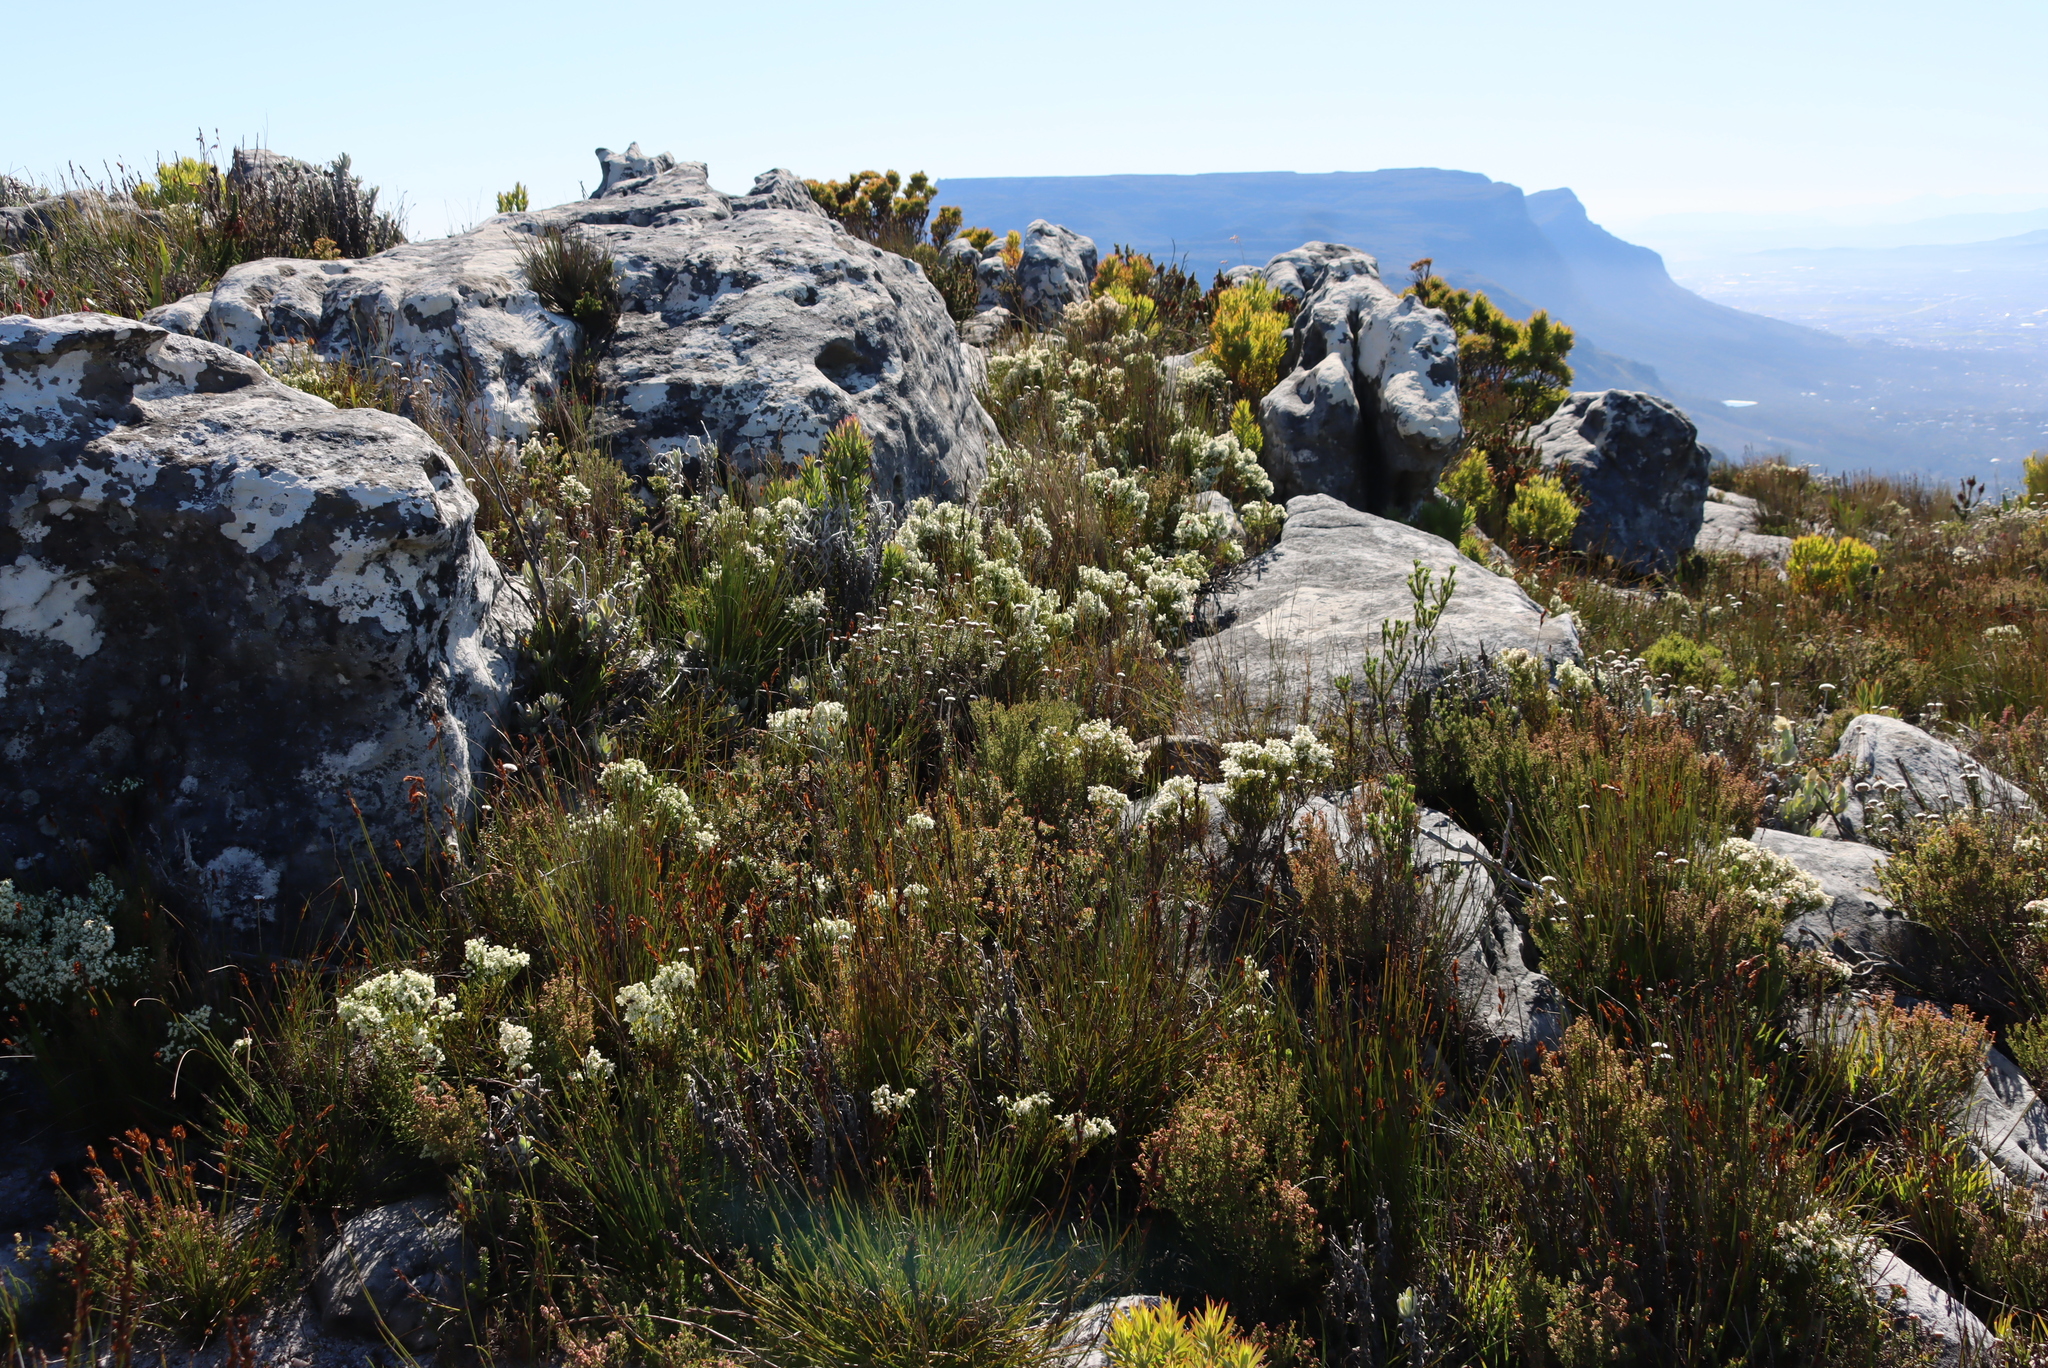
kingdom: Plantae
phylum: Tracheophyta
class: Magnoliopsida
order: Ericales
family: Ericaceae
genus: Erica
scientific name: Erica lutea
